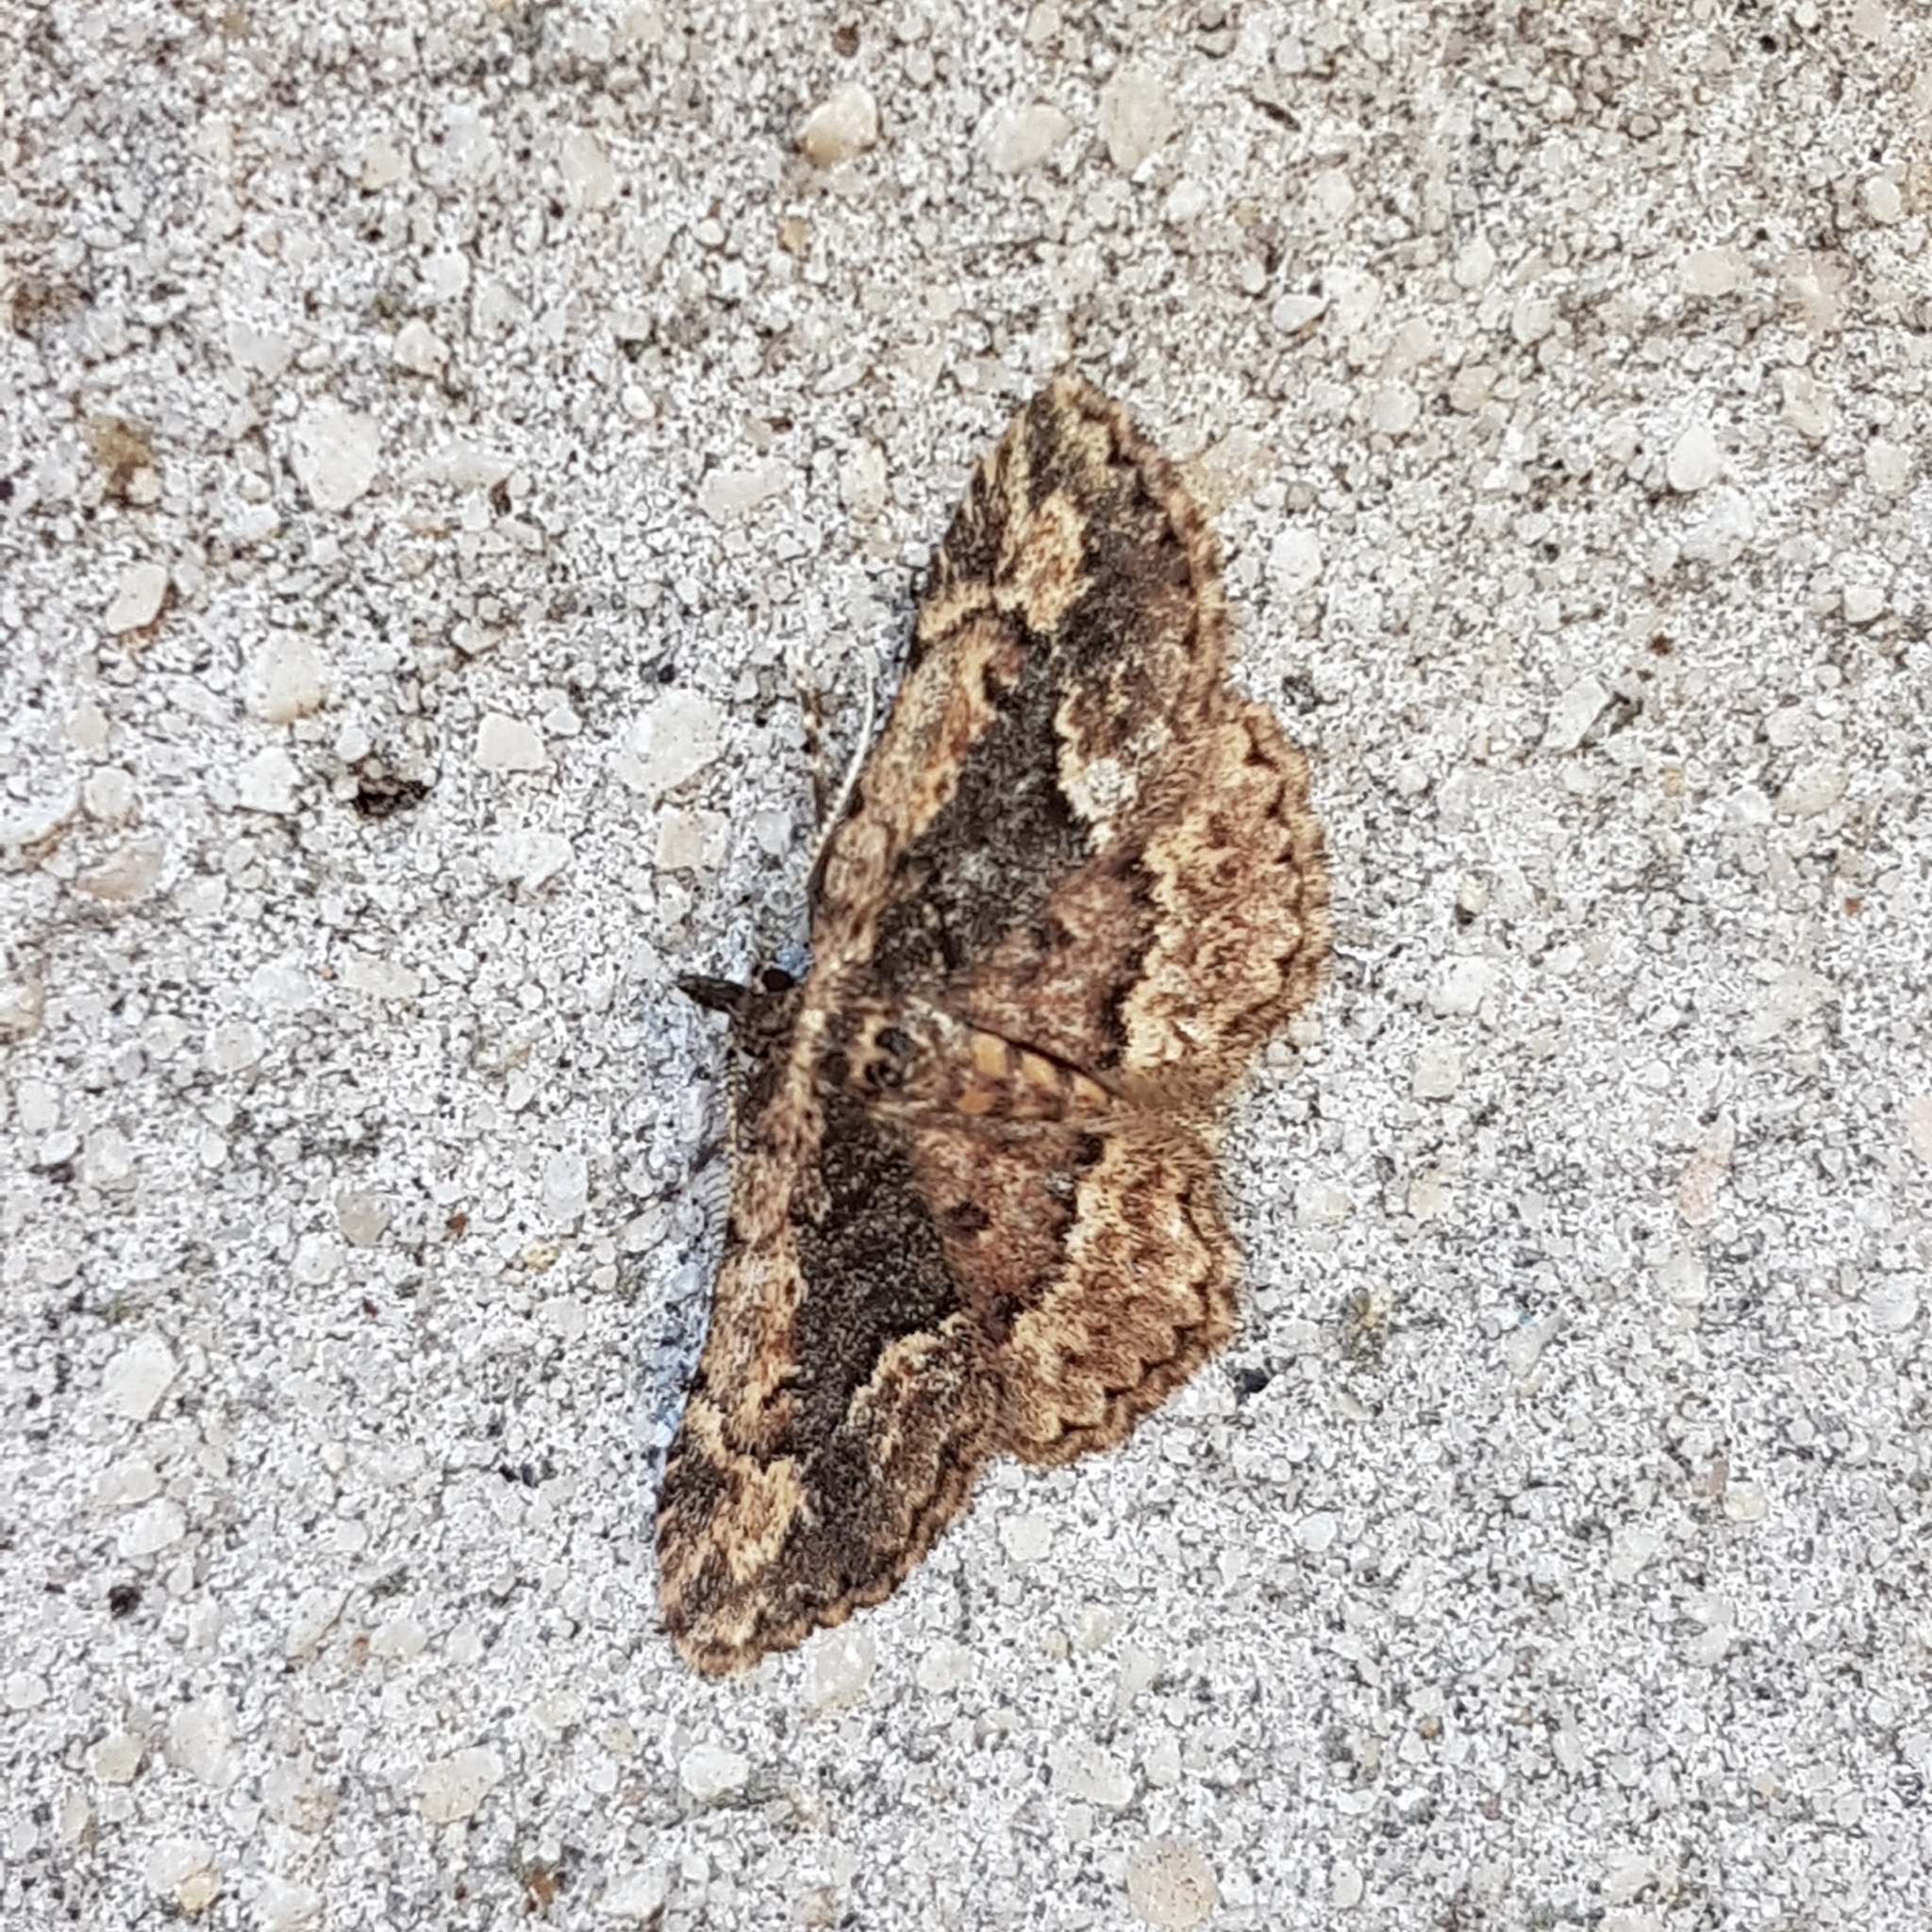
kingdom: Animalia
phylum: Arthropoda
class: Insecta
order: Lepidoptera
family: Erebidae
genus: Parascotia
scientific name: Parascotia nisseni
